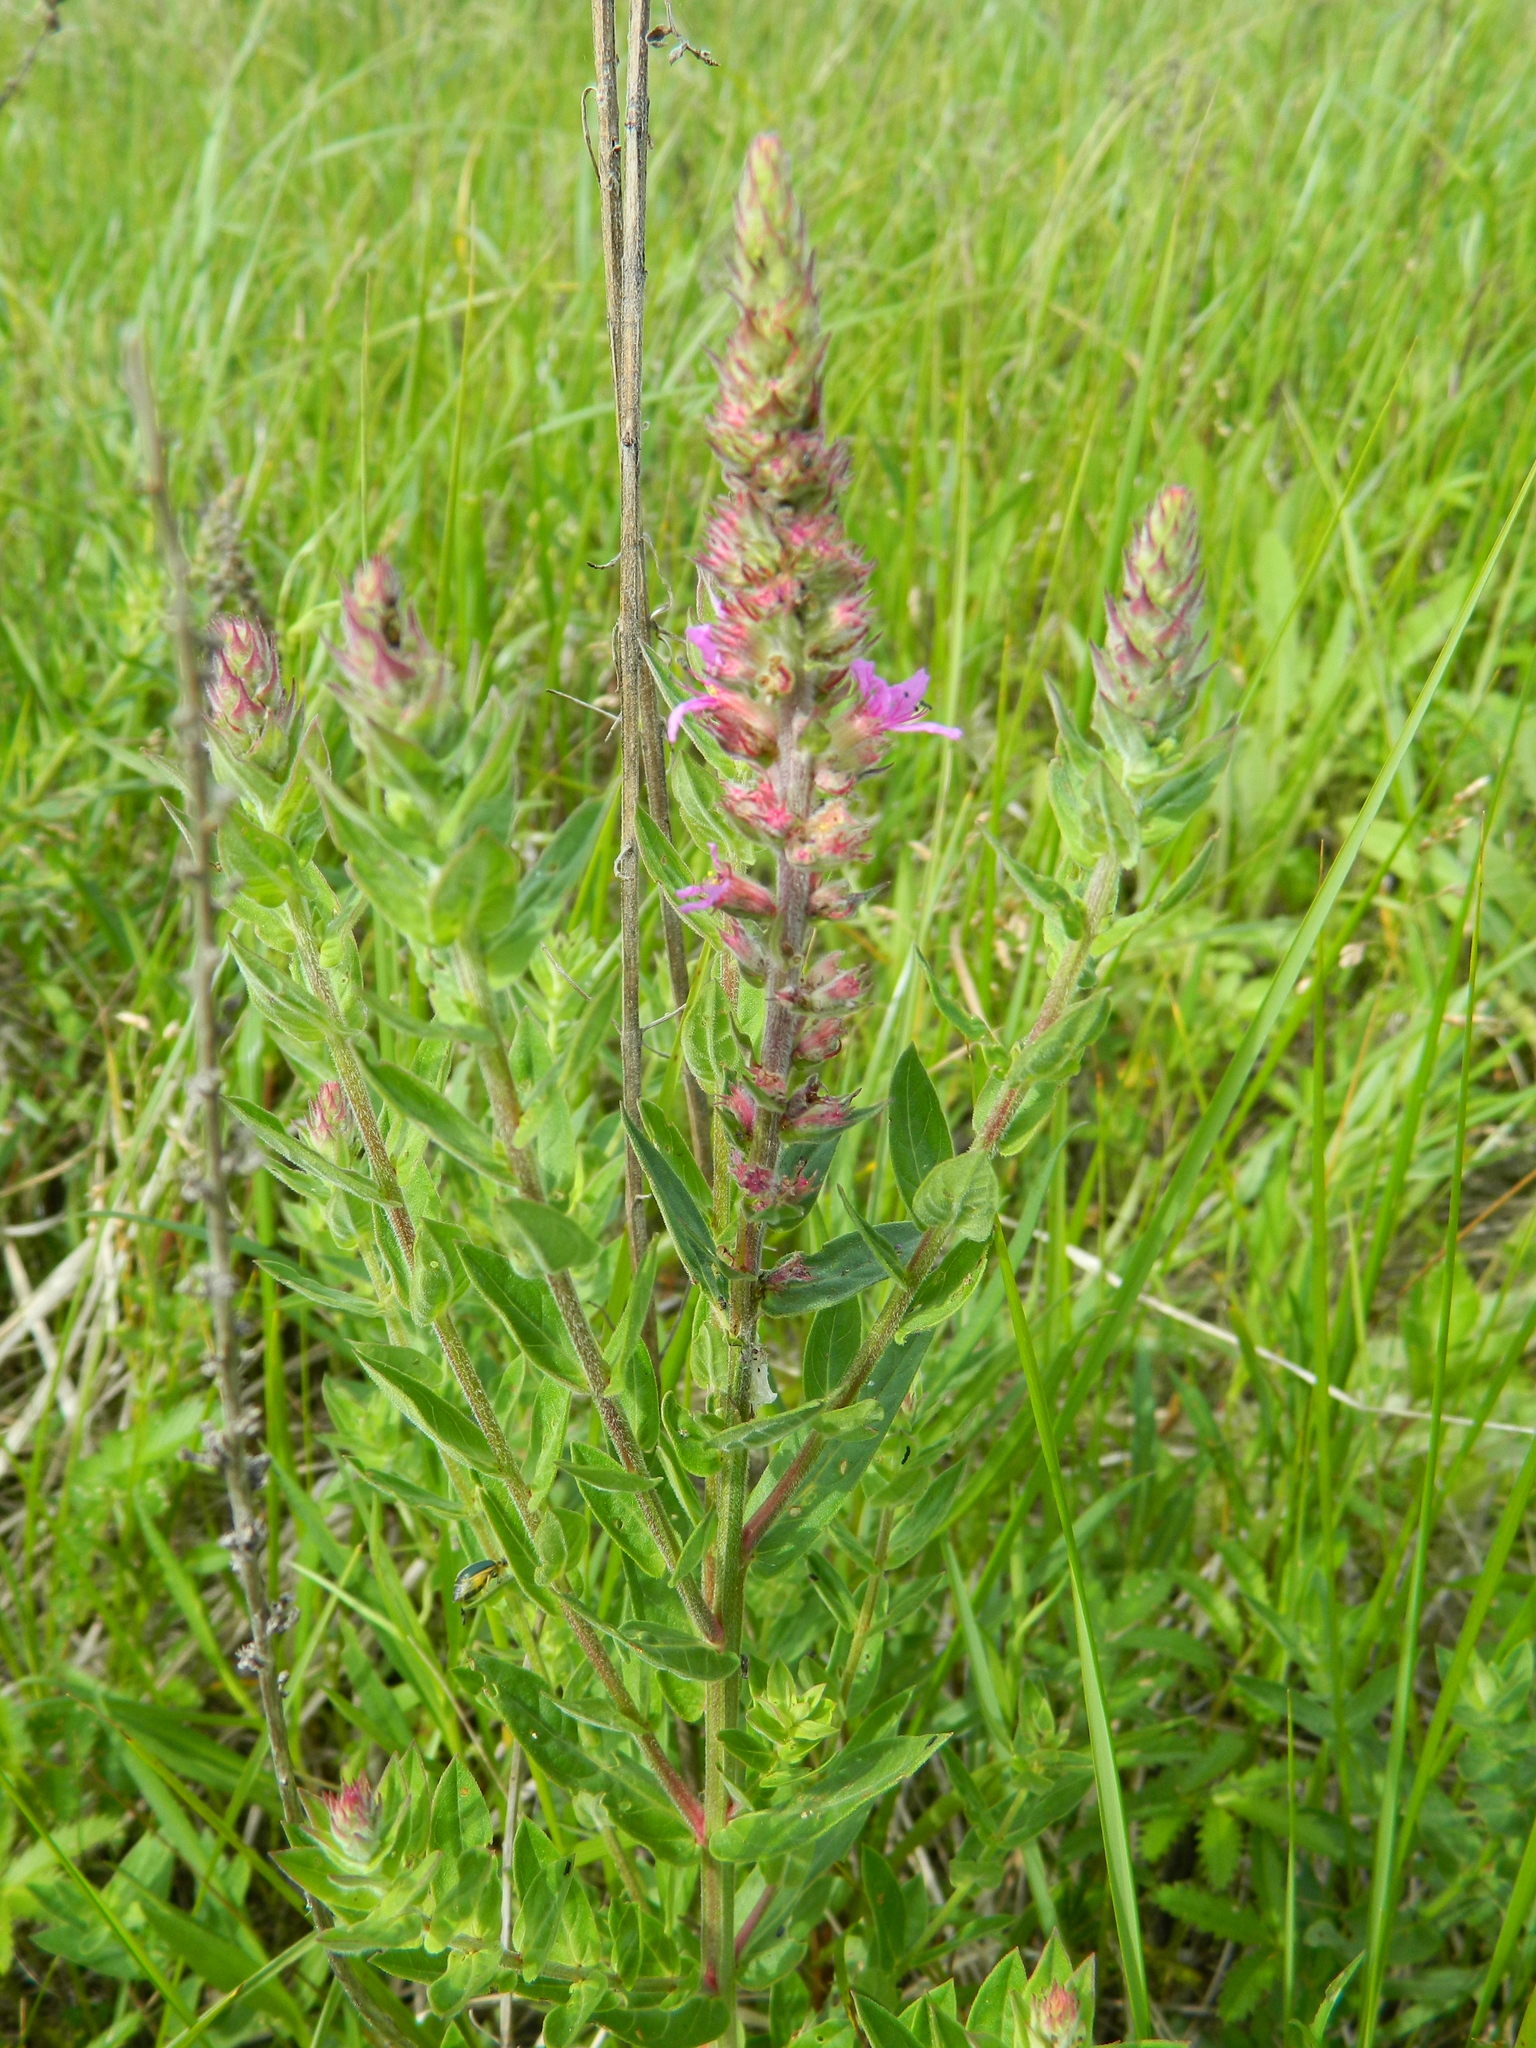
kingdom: Plantae
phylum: Tracheophyta
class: Magnoliopsida
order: Myrtales
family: Lythraceae
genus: Lythrum
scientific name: Lythrum salicaria
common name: Purple loosestrife
